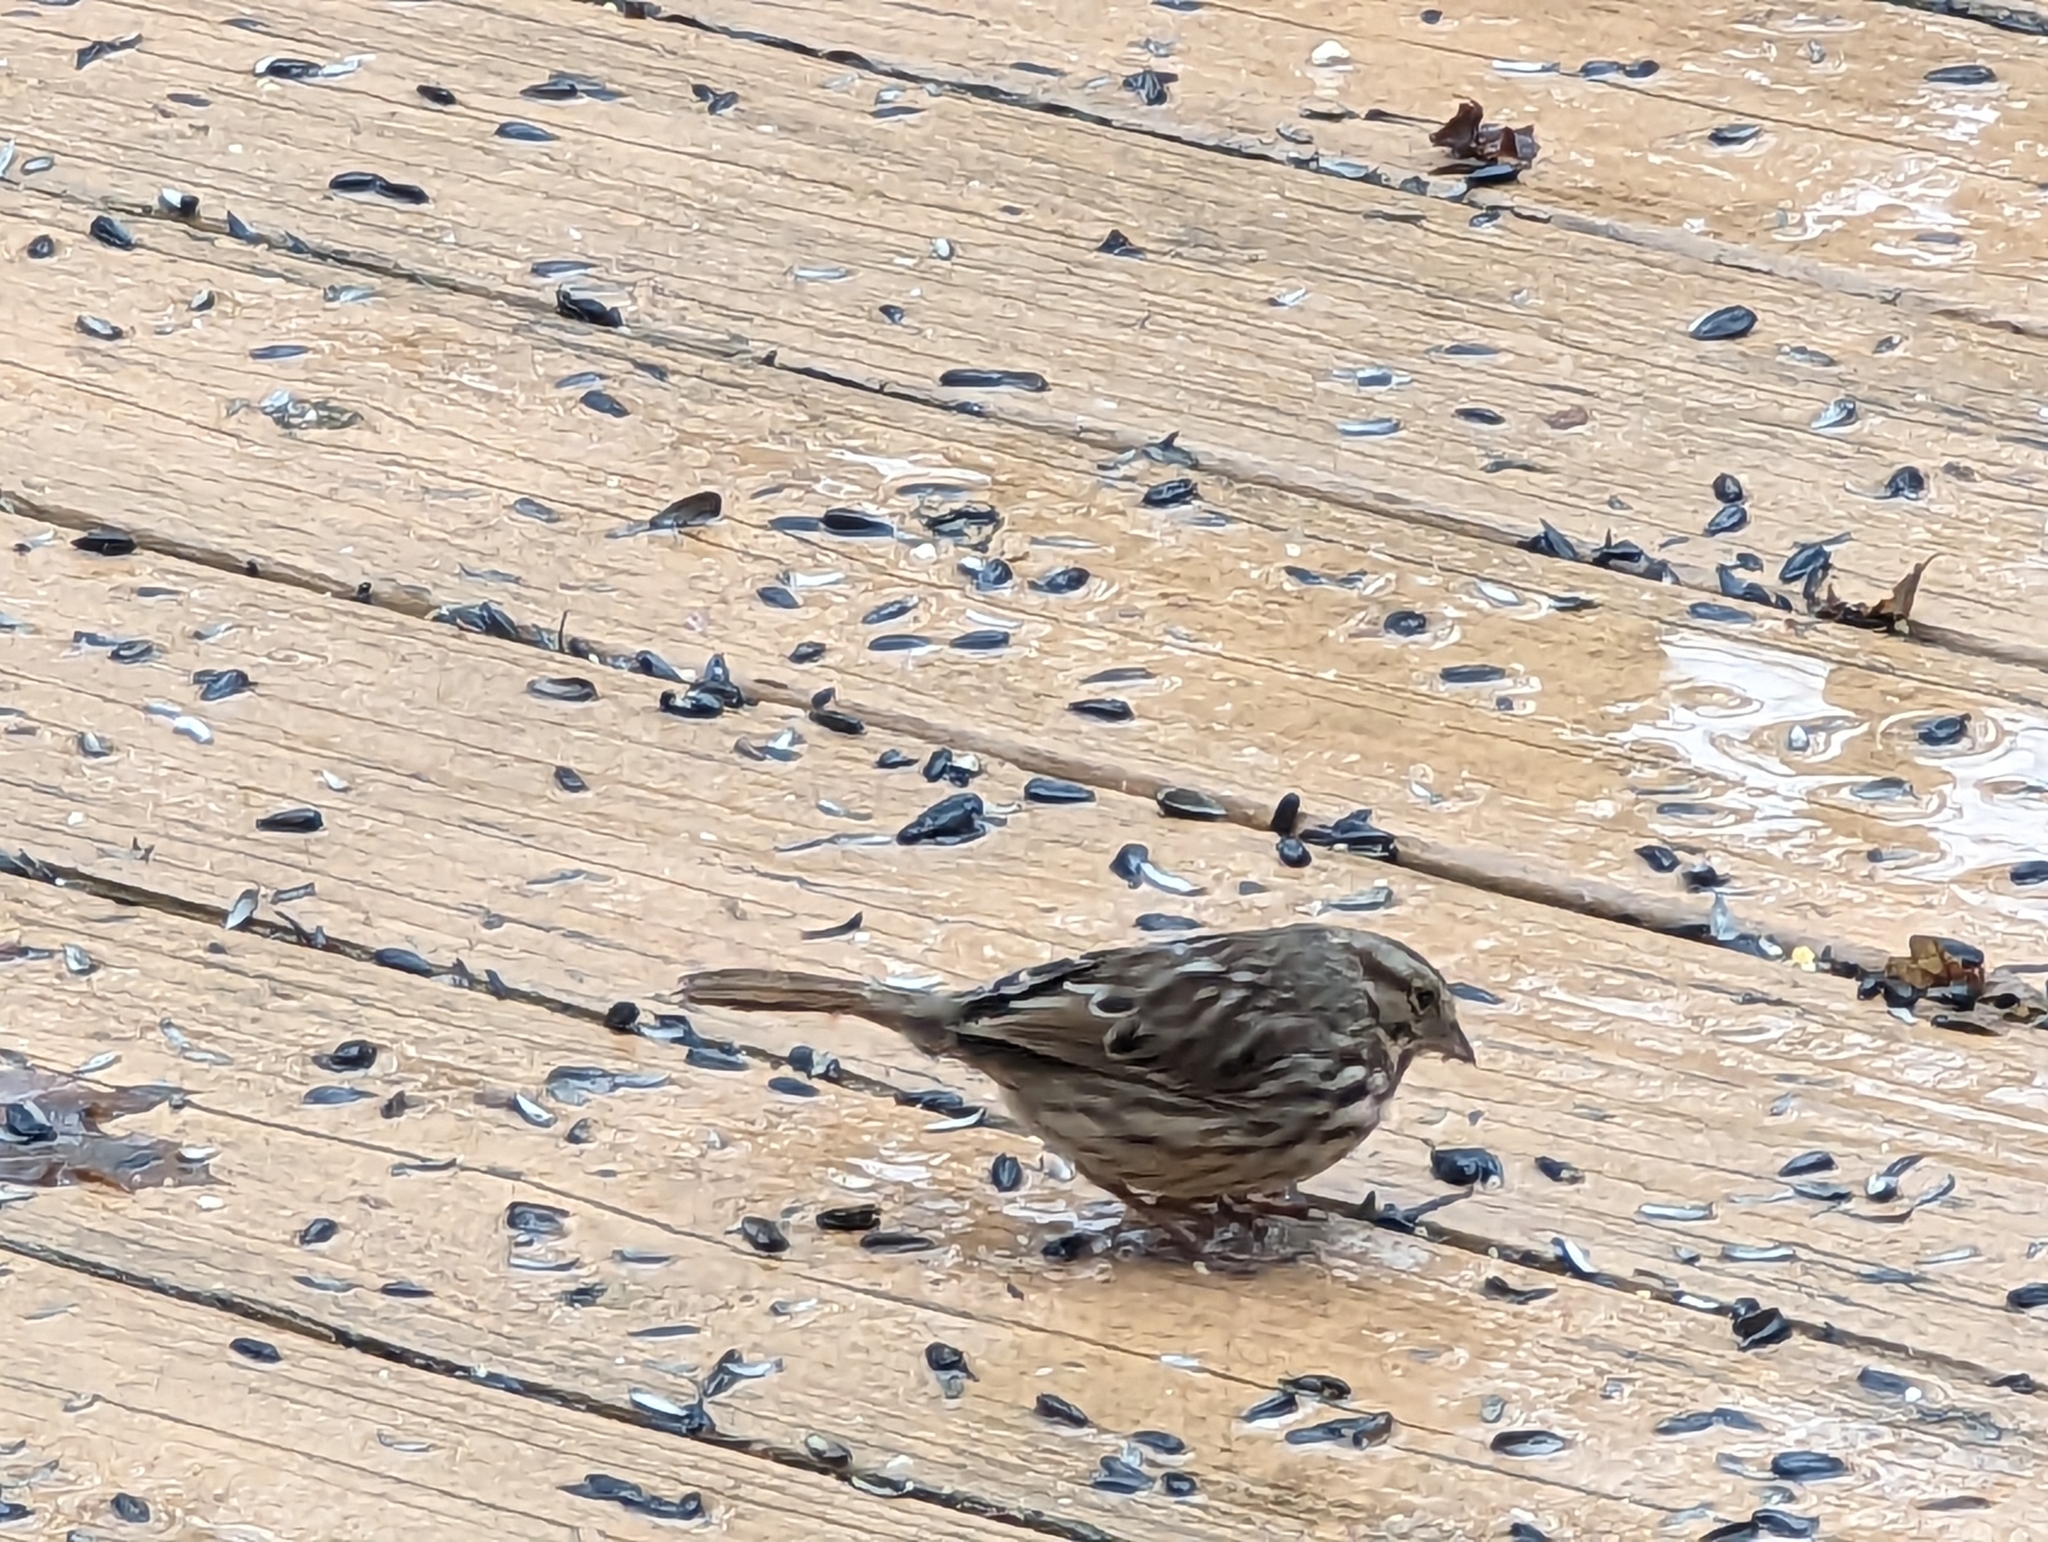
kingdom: Animalia
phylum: Chordata
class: Aves
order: Passeriformes
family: Passerellidae
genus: Melospiza
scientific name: Melospiza melodia
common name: Song sparrow
